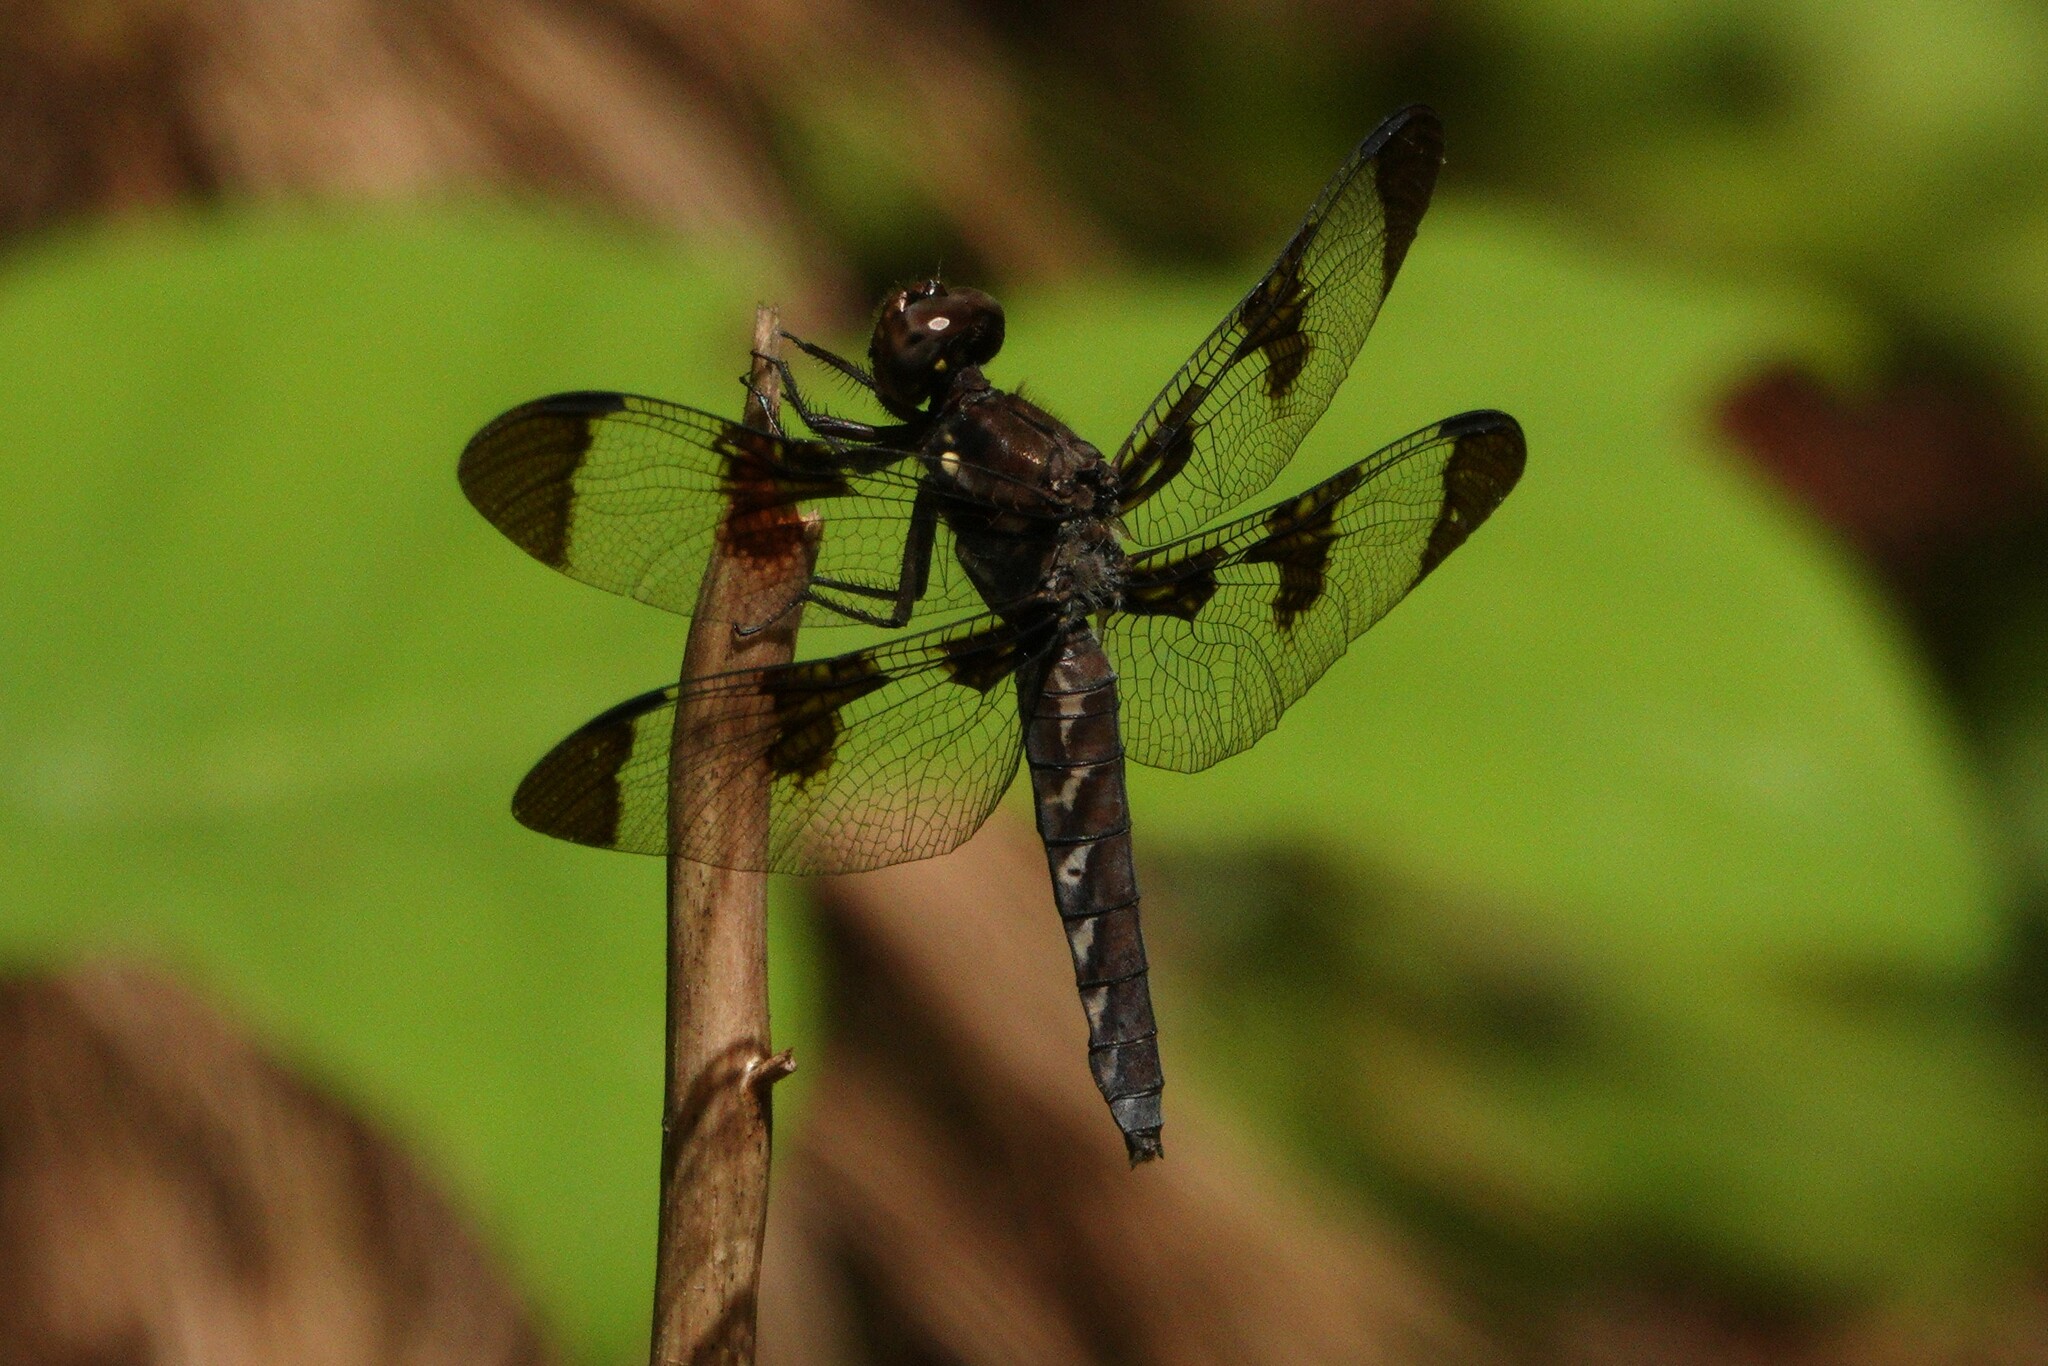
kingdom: Animalia
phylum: Arthropoda
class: Insecta
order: Odonata
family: Libellulidae
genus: Plathemis
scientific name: Plathemis lydia
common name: Common whitetail
